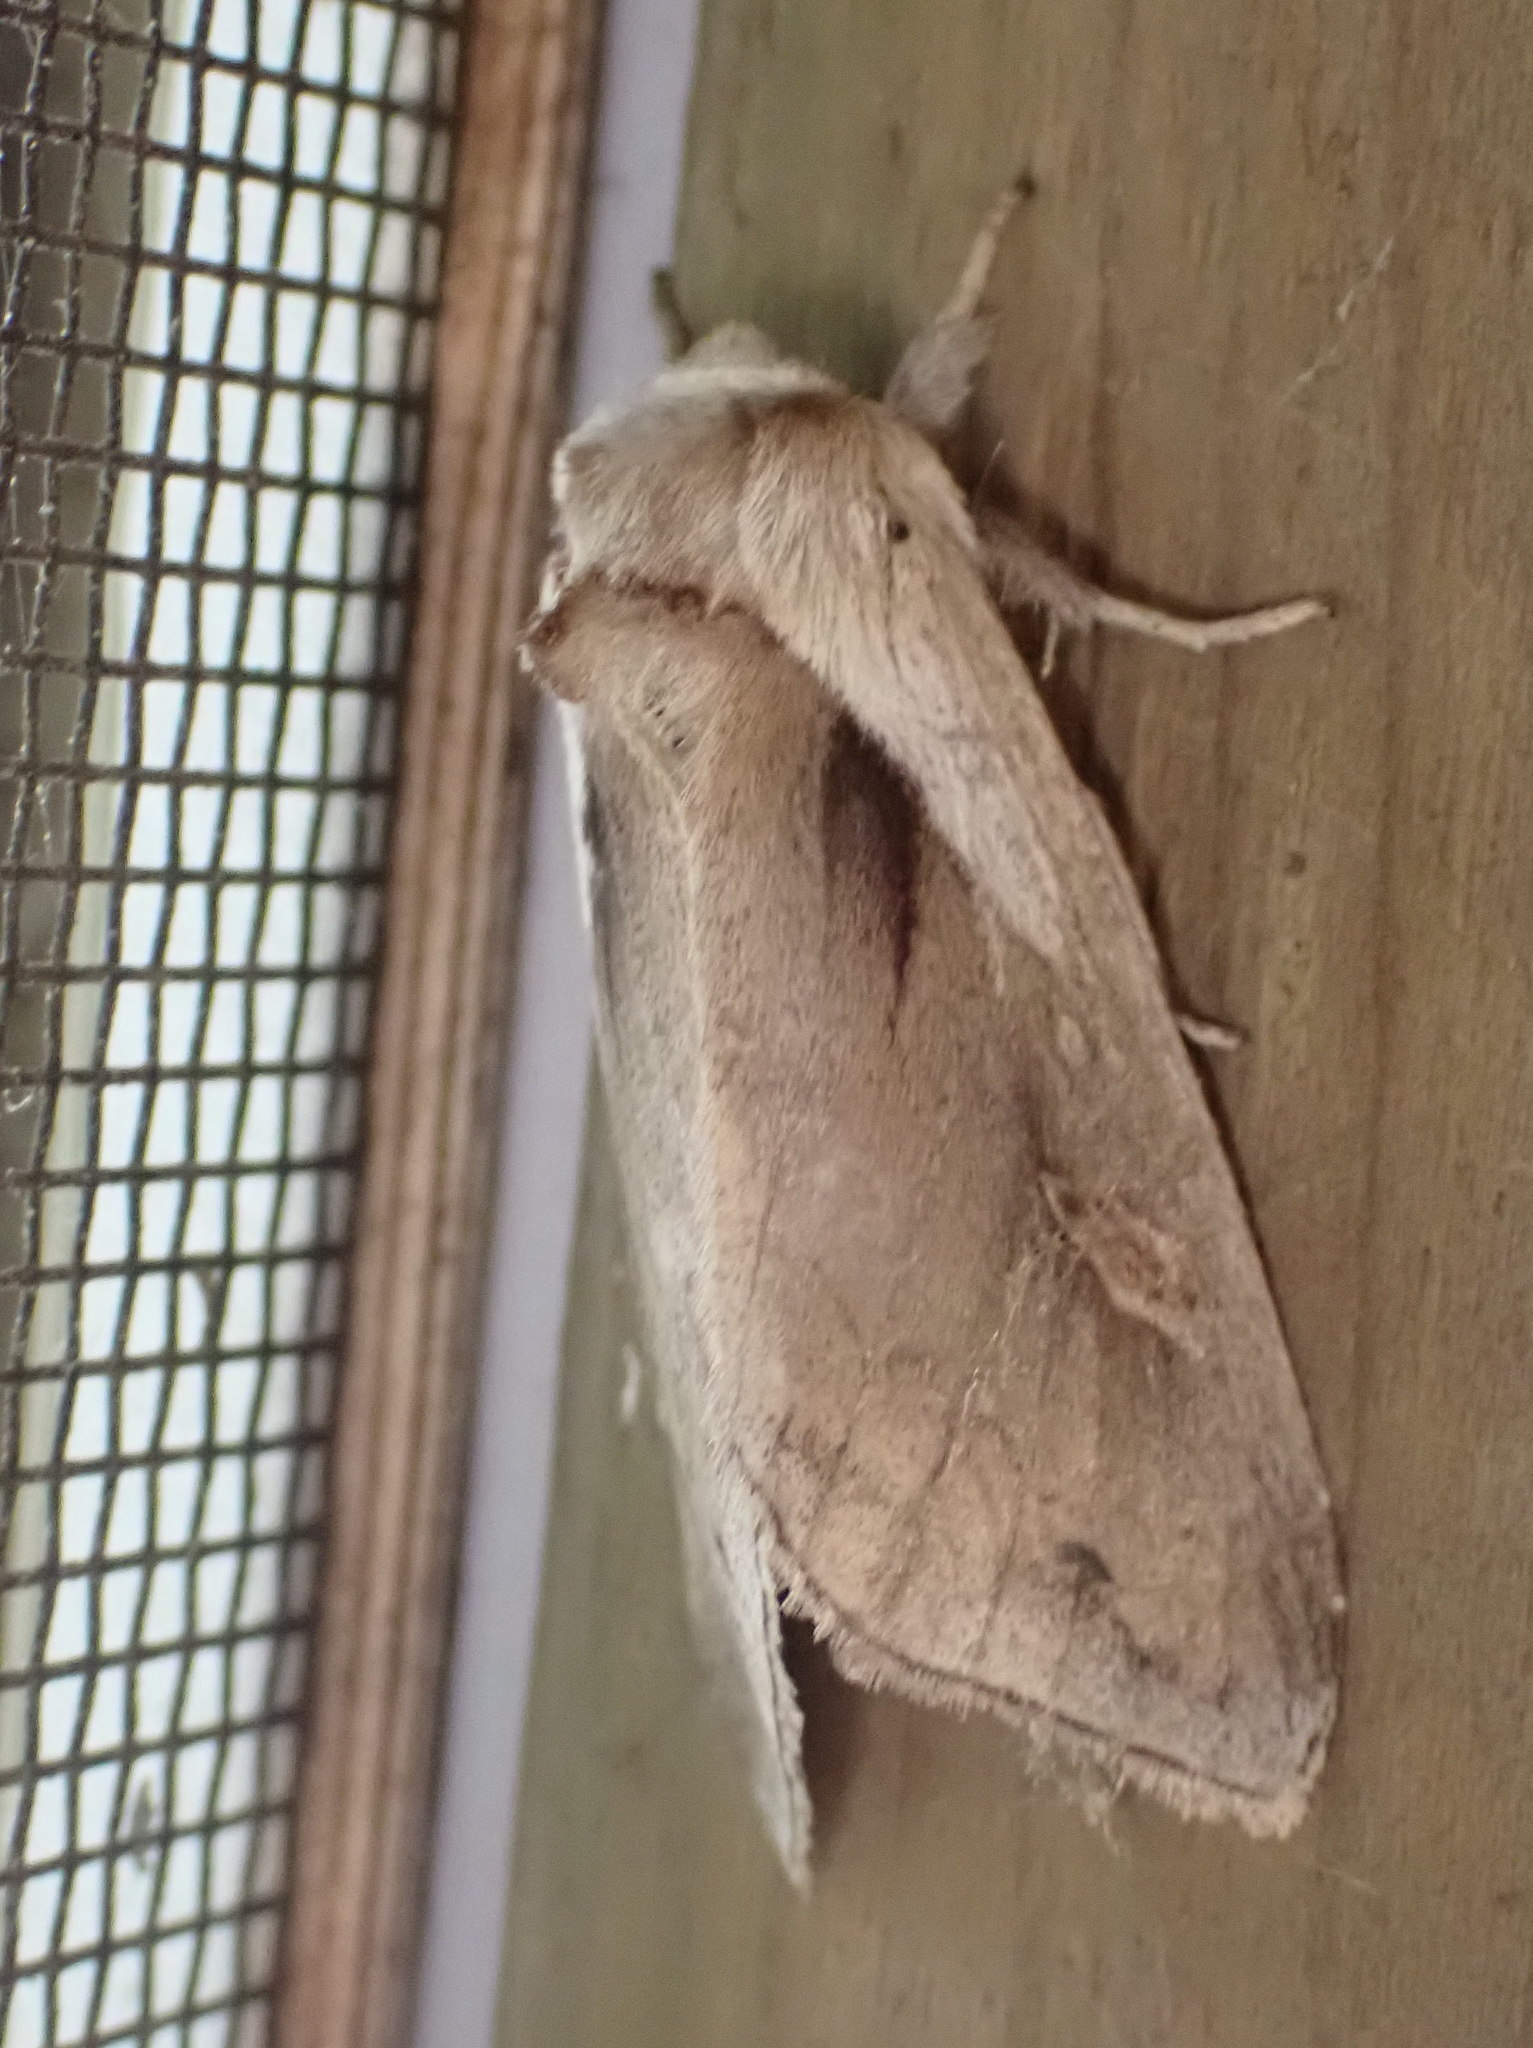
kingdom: Animalia
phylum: Arthropoda
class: Insecta
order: Lepidoptera
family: Noctuidae
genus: Bellura
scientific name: Bellura obliqua
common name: Cattail borer moth
